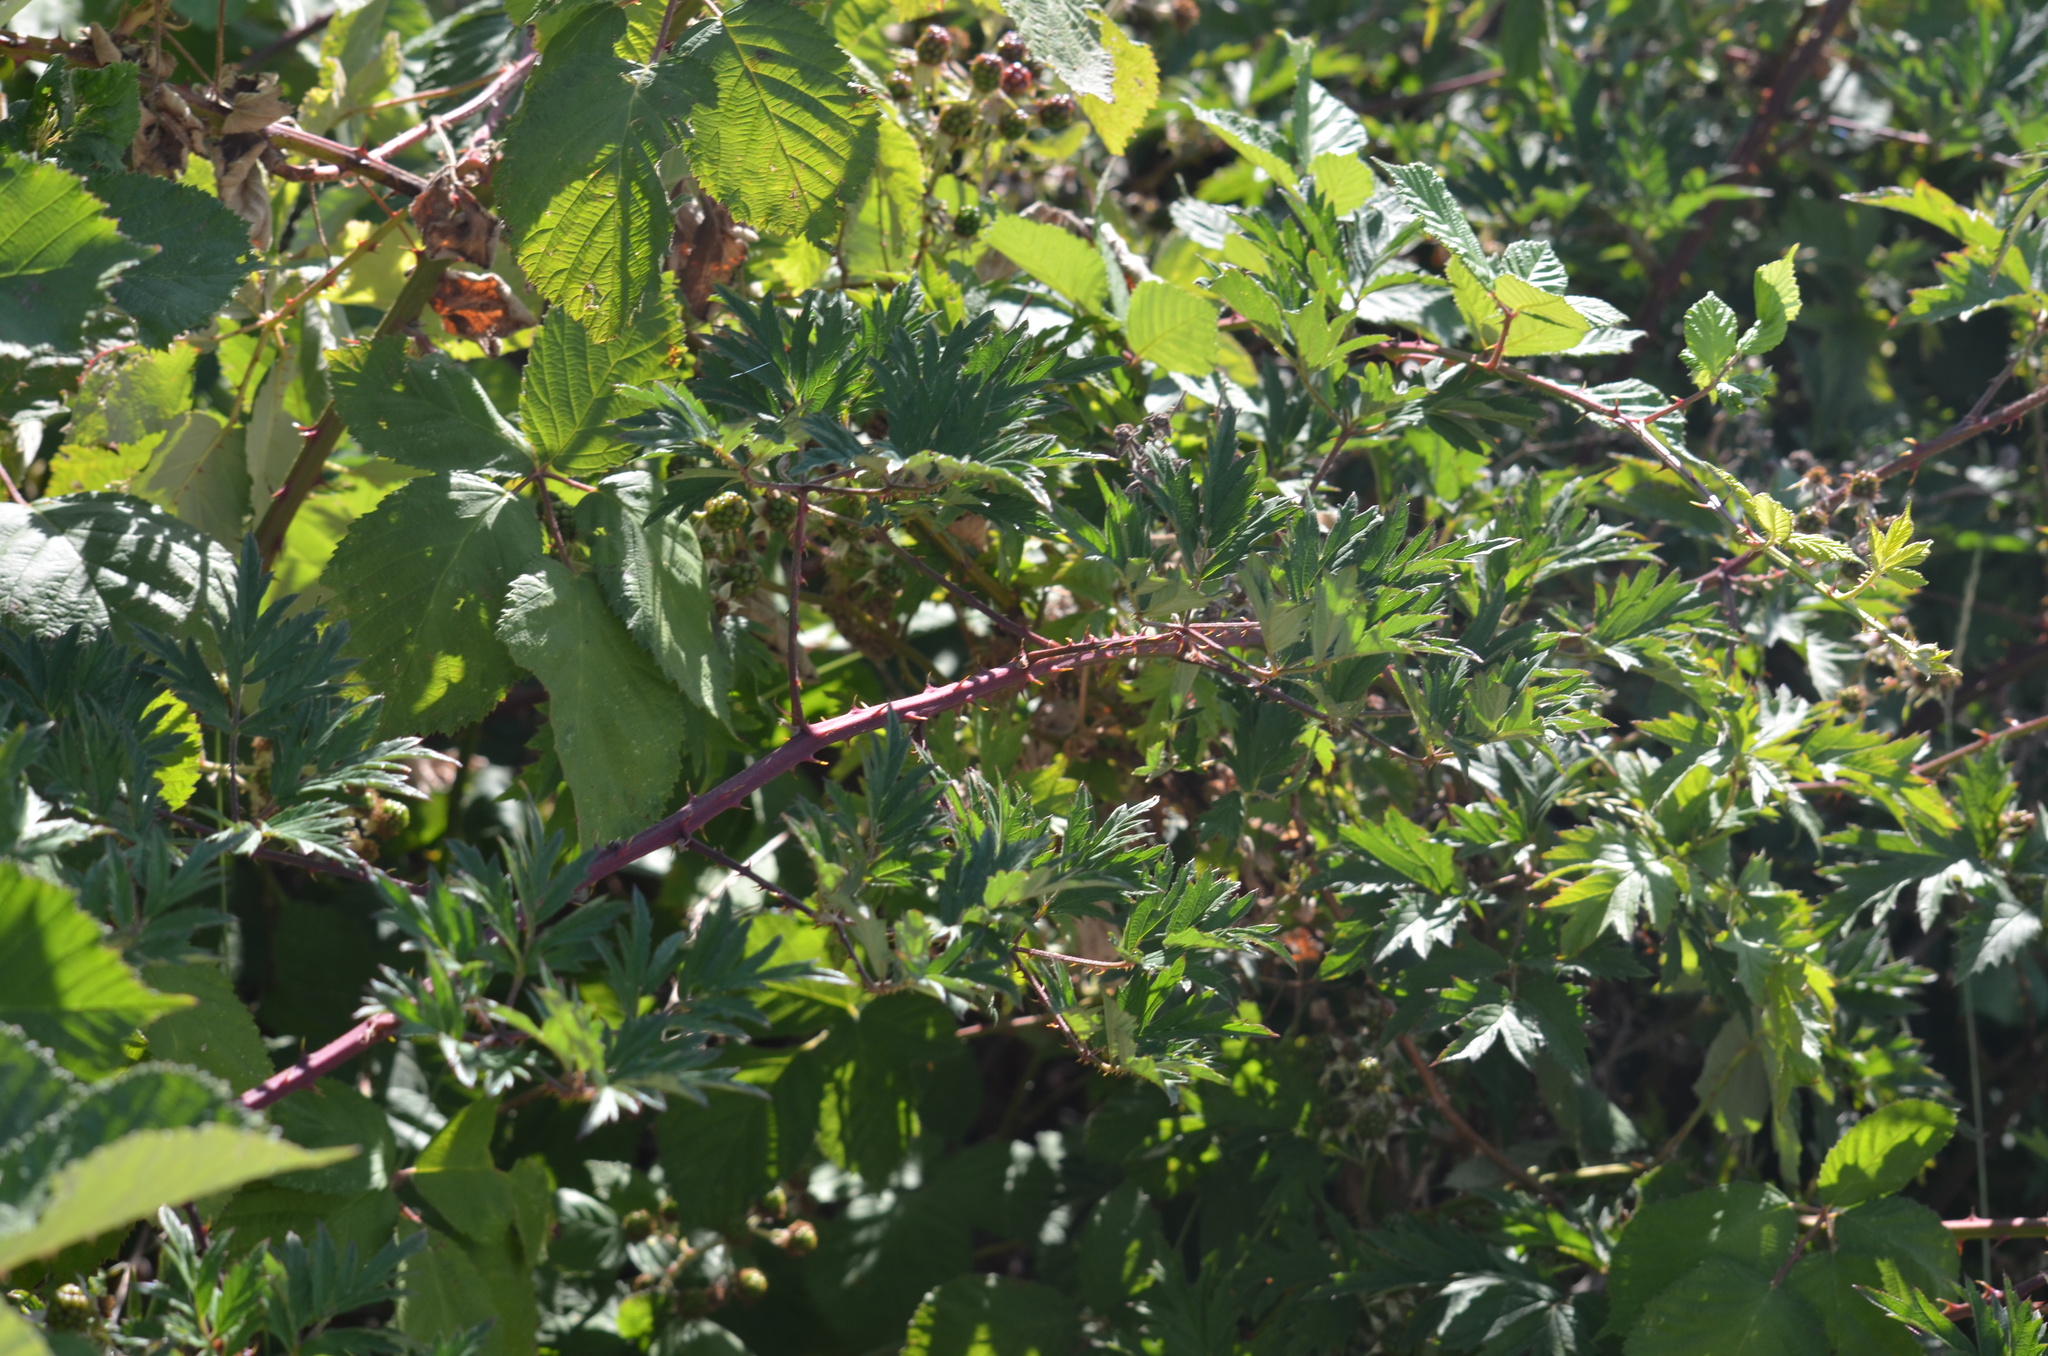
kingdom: Plantae
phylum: Tracheophyta
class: Magnoliopsida
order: Rosales
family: Rosaceae
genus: Rubus
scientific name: Rubus laciniatus
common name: Evergreen blackberry
